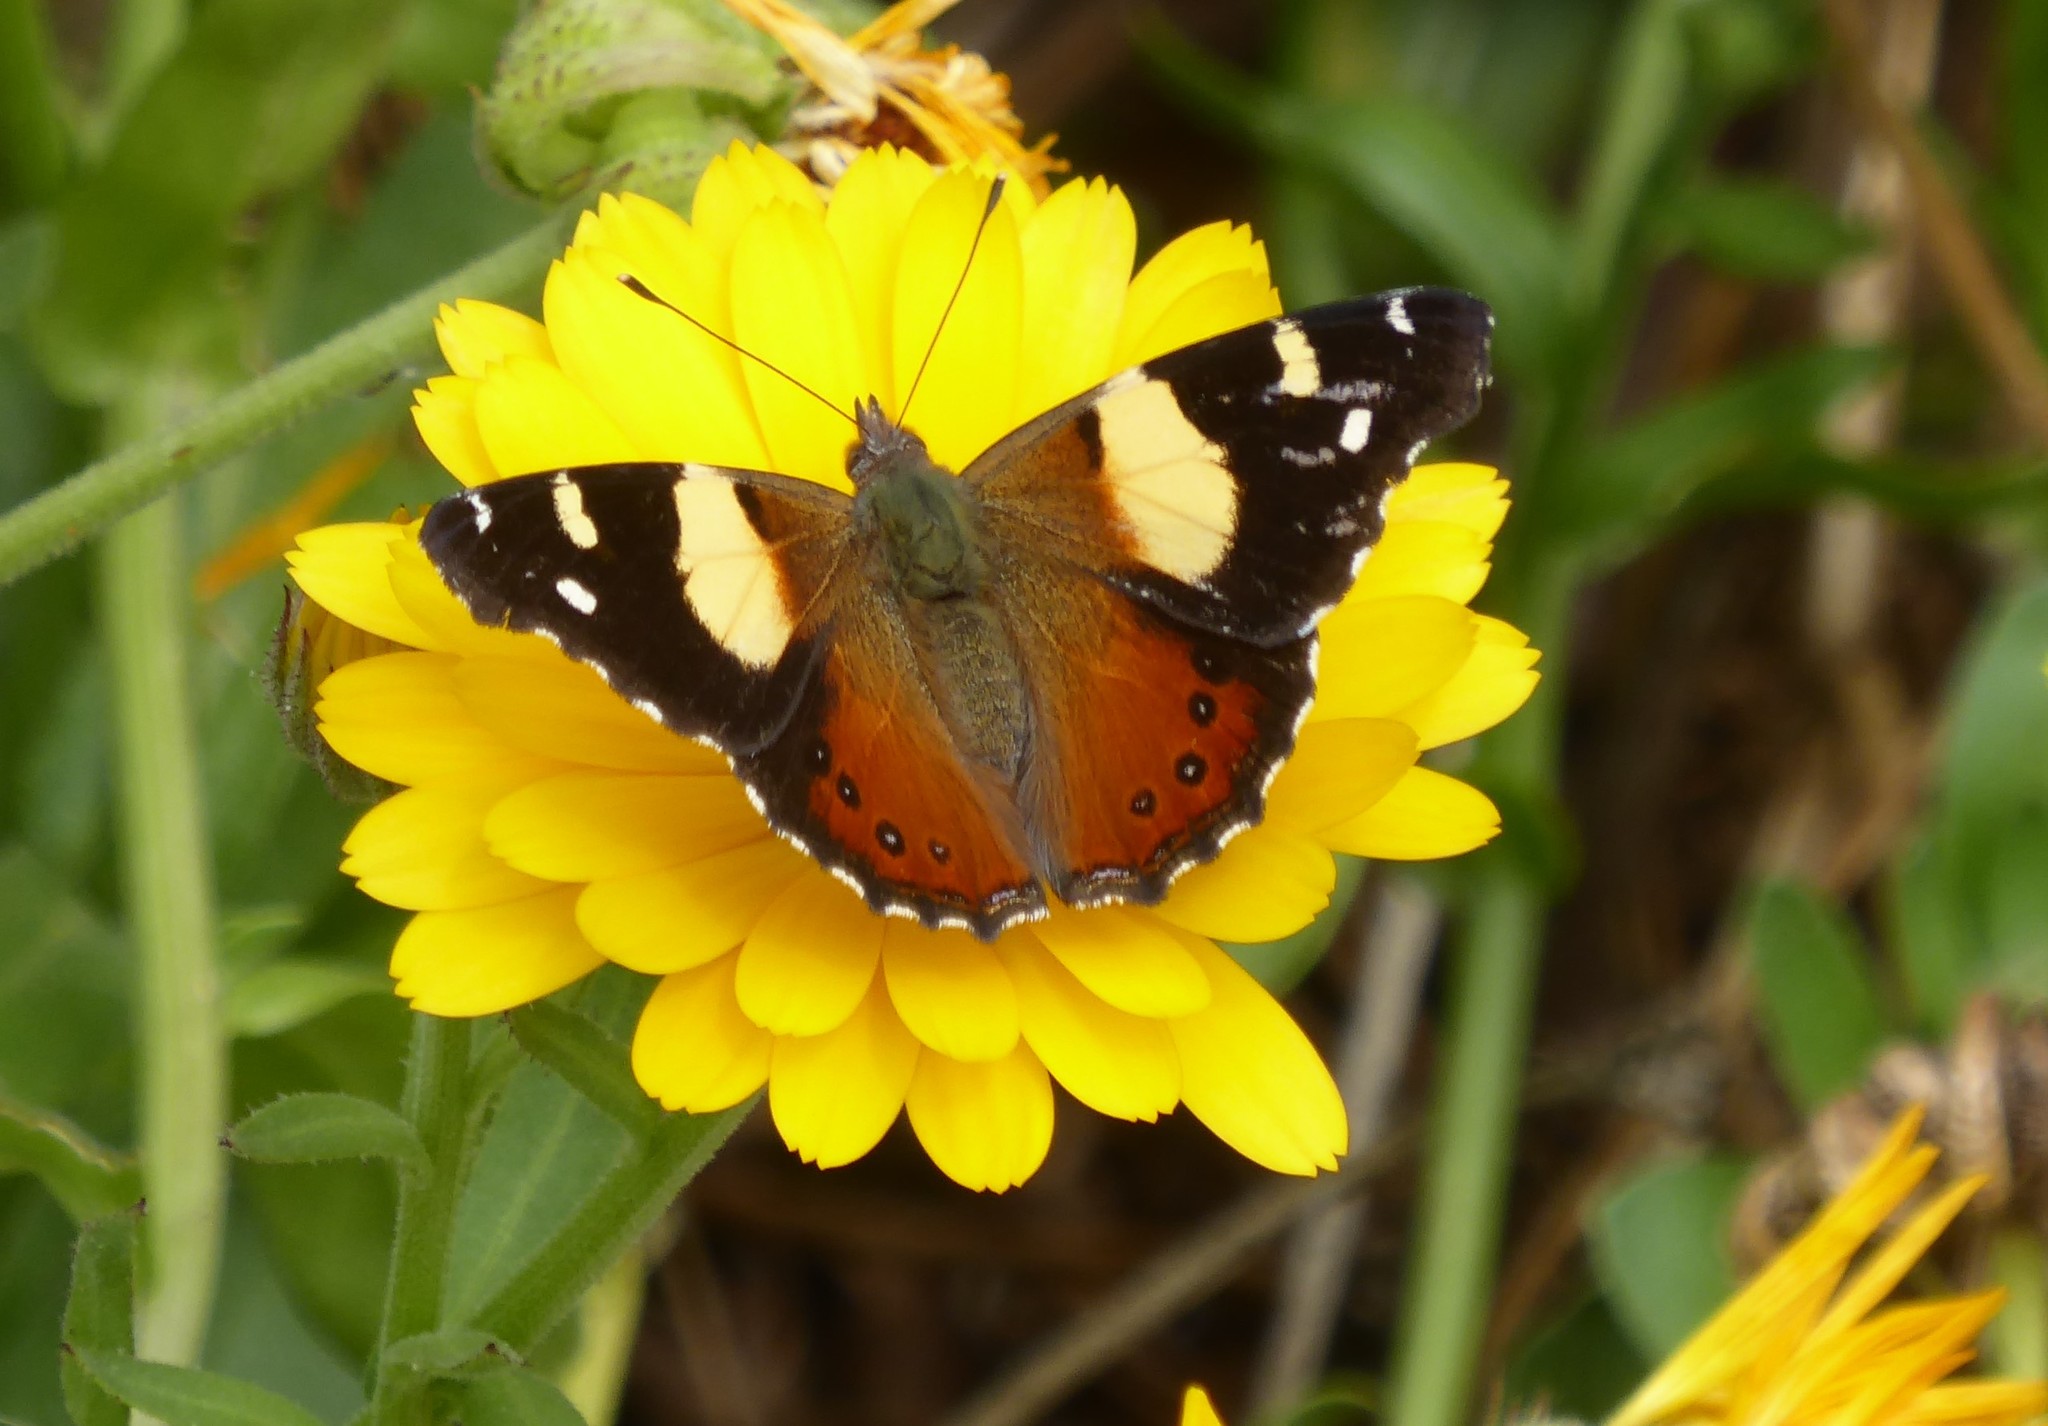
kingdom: Animalia
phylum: Arthropoda
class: Insecta
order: Lepidoptera
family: Nymphalidae
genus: Vanessa
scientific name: Vanessa itea
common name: Yellow admiral
